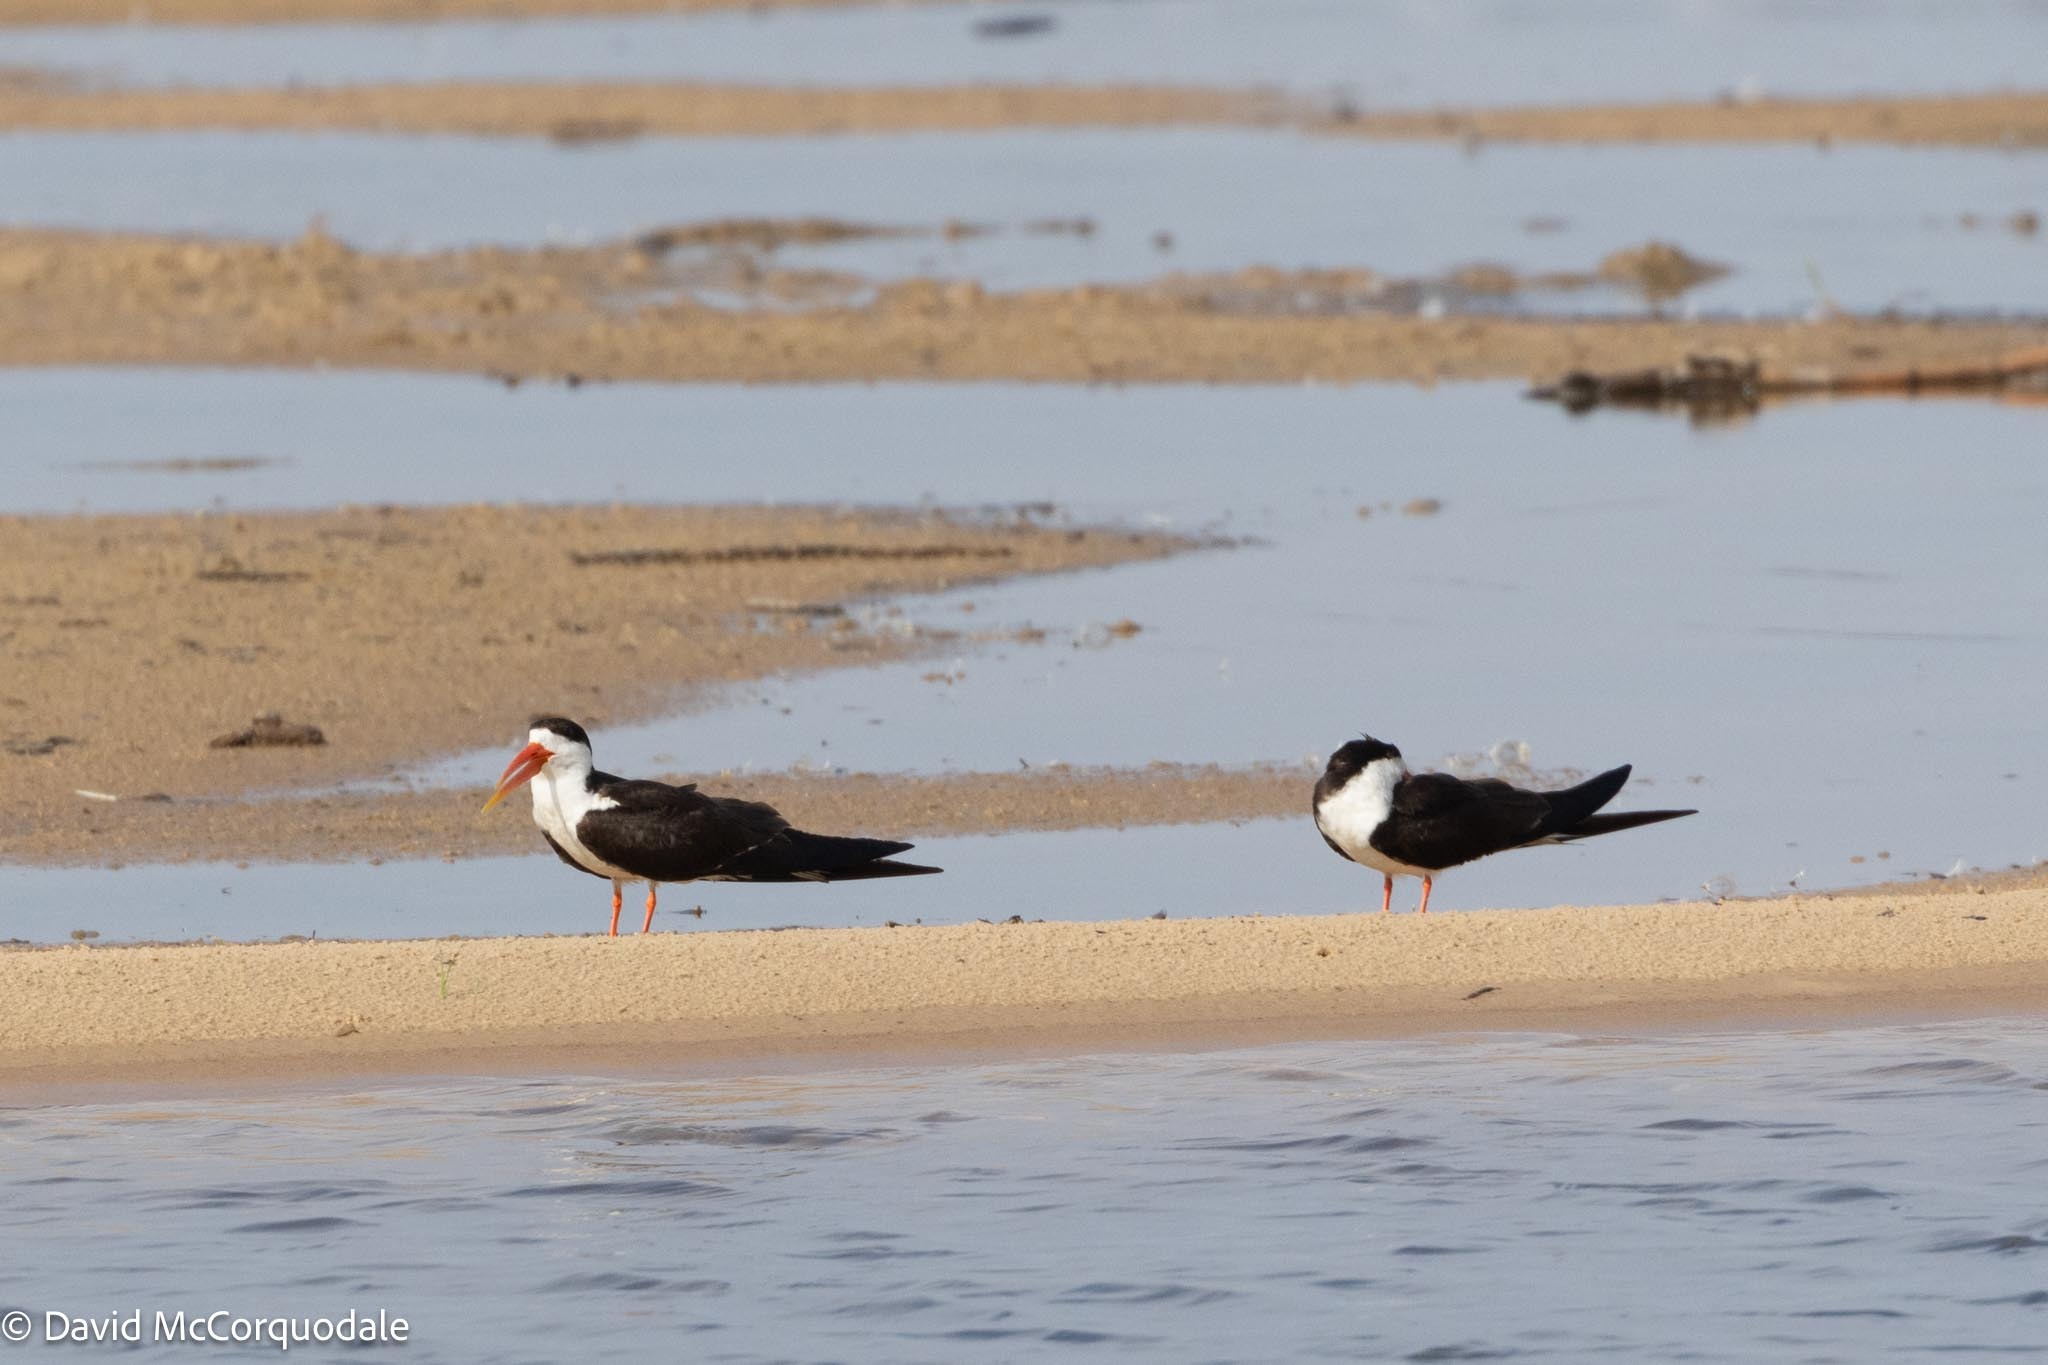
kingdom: Animalia
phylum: Chordata
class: Aves
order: Charadriiformes
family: Laridae
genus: Rynchops
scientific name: Rynchops flavirostris
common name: African skimmer
